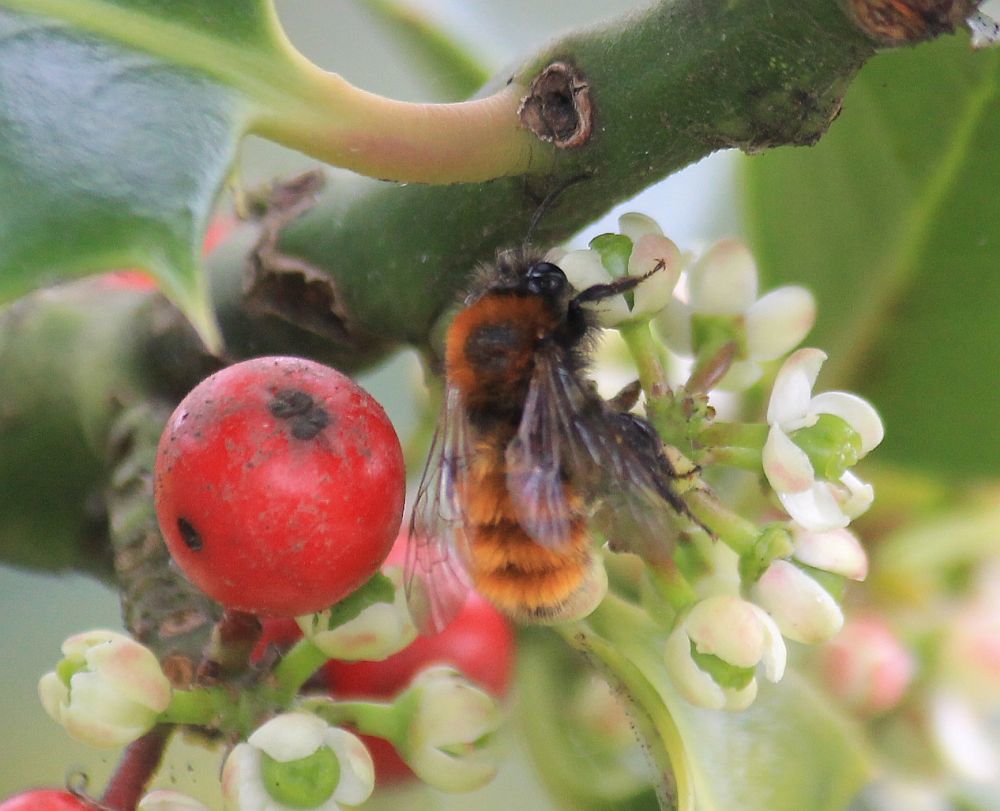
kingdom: Animalia
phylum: Arthropoda
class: Insecta
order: Hymenoptera
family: Andrenidae
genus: Andrena
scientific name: Andrena fulva
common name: Tawny mining bee
